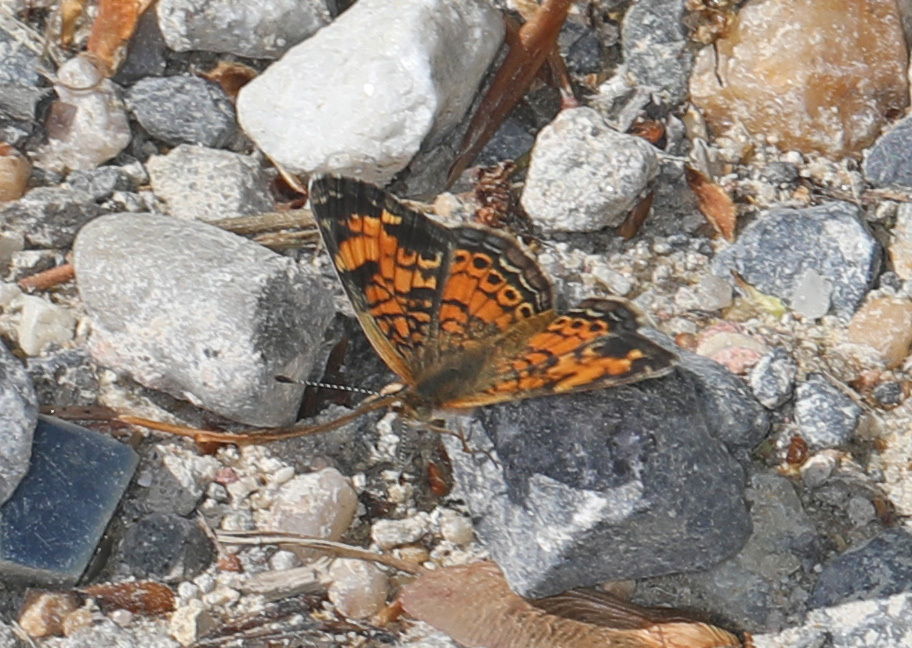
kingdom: Animalia
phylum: Arthropoda
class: Insecta
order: Lepidoptera
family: Nymphalidae
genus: Phyciodes
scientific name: Phyciodes tharos
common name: Pearl crescent
